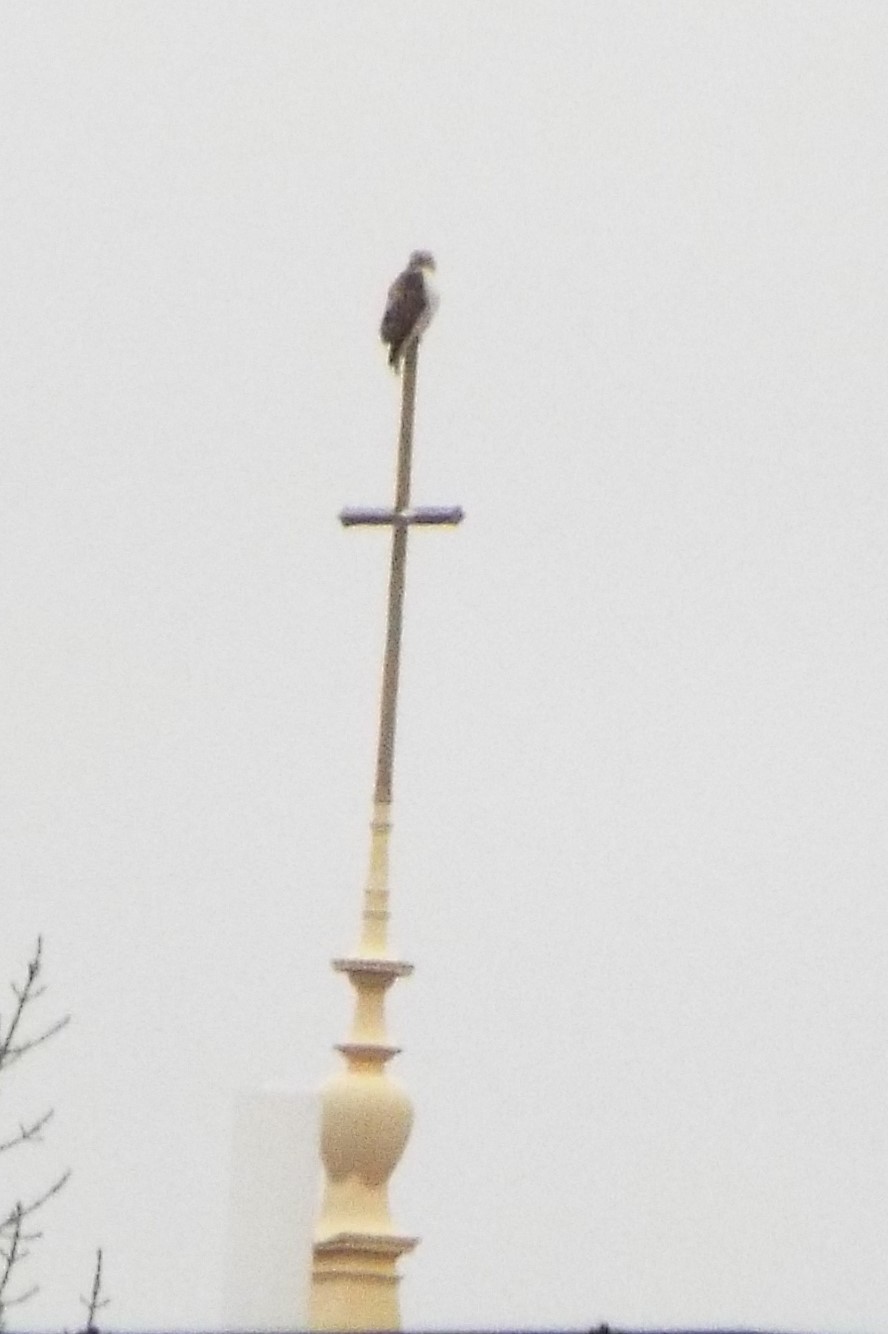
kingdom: Animalia
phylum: Chordata
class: Aves
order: Accipitriformes
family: Accipitridae
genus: Buteo
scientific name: Buteo jamaicensis
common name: Red-tailed hawk
